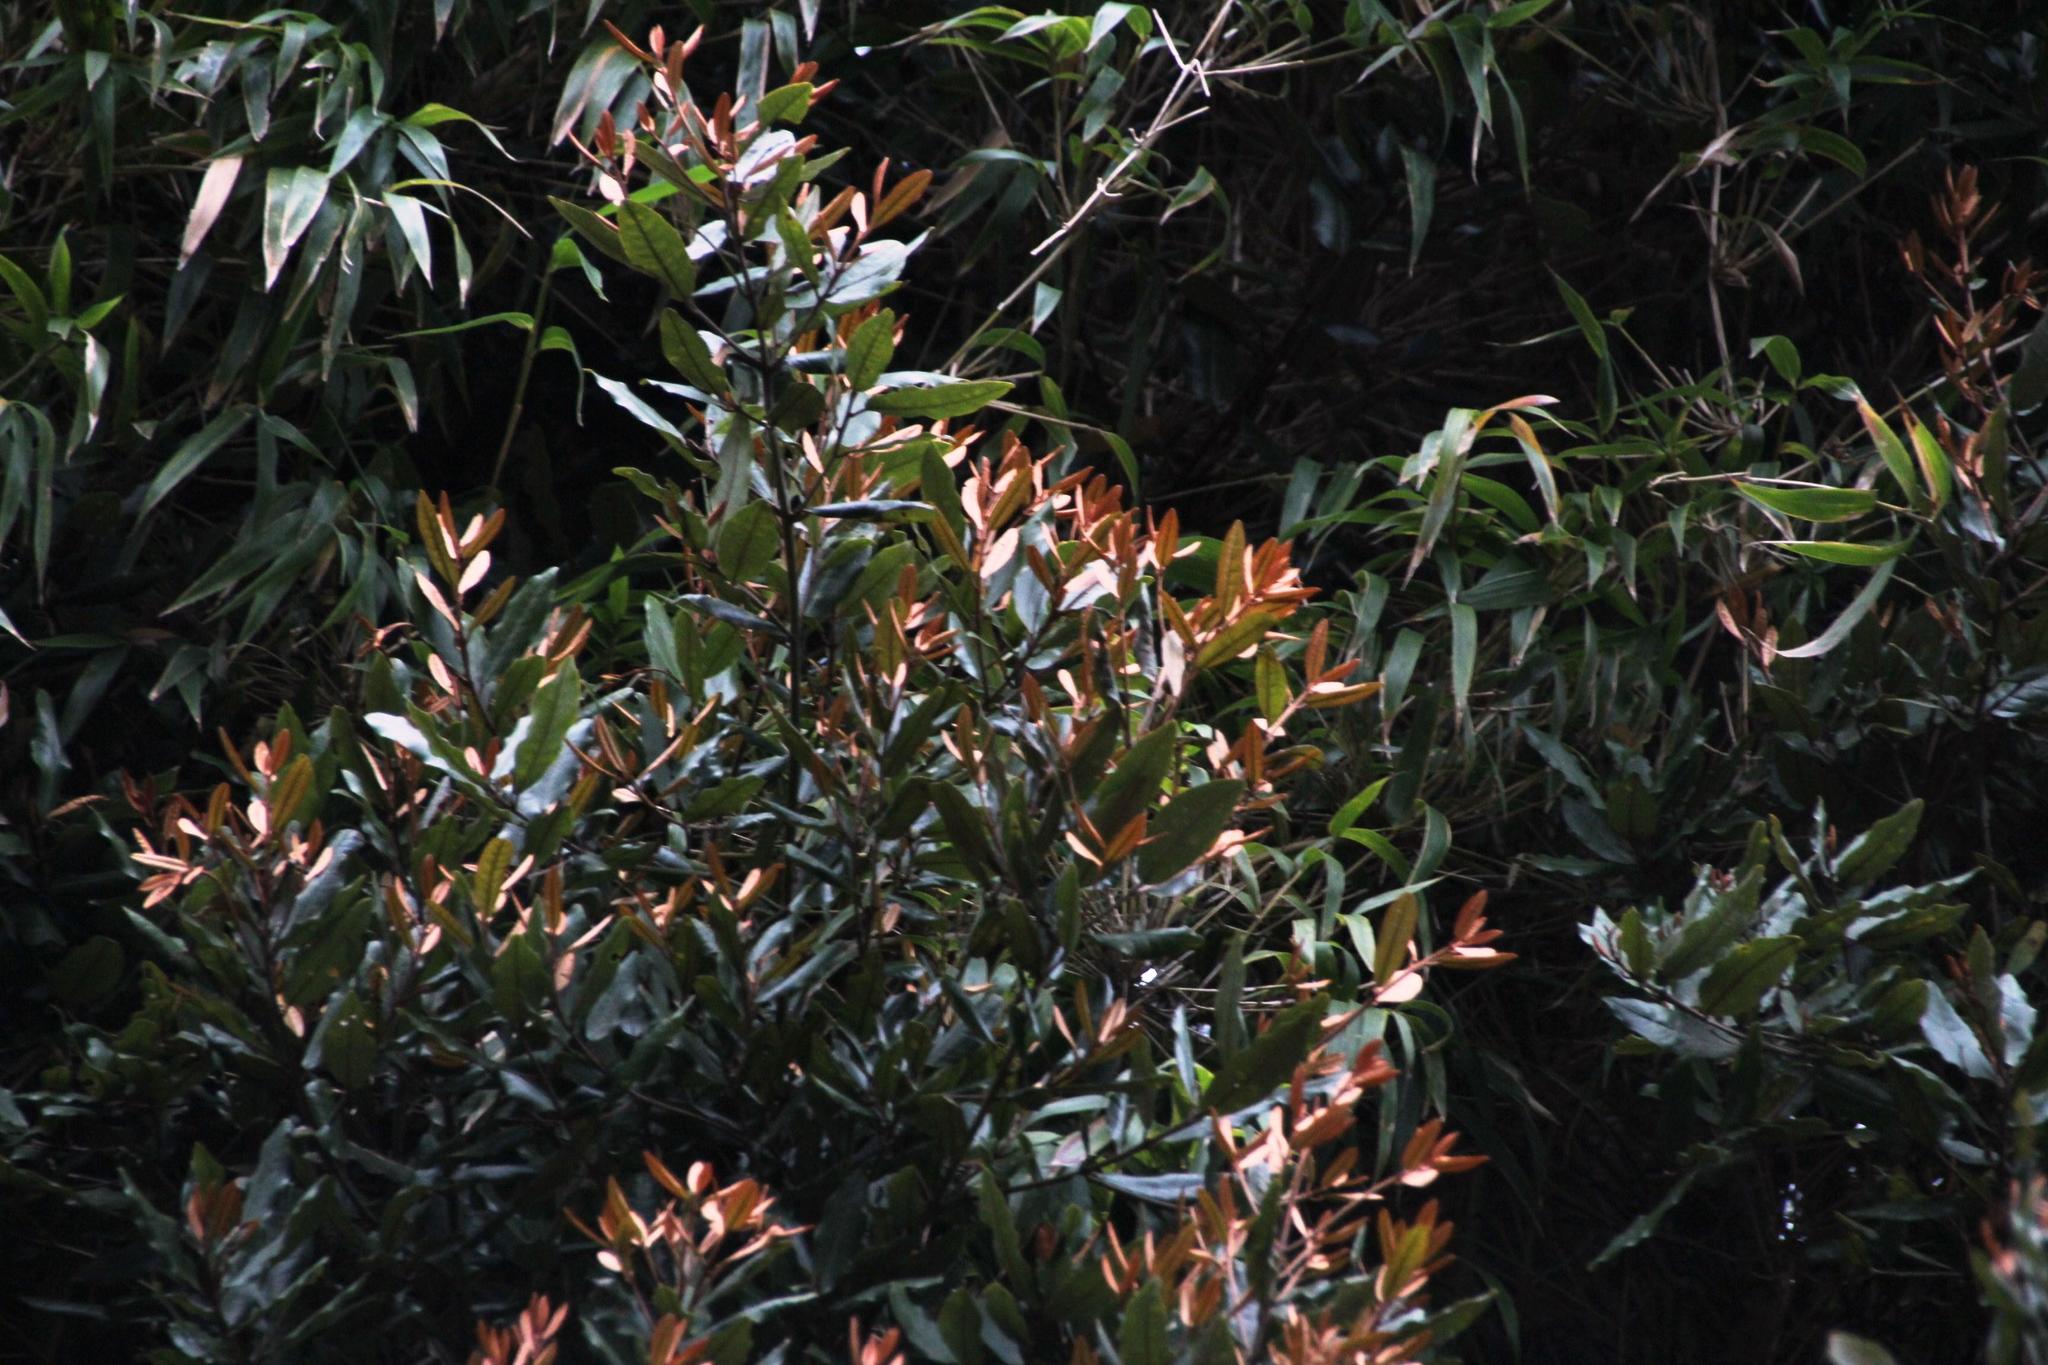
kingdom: Plantae
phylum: Tracheophyta
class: Magnoliopsida
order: Berberidopsidales
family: Aextoxicaceae
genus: Aextoxicon
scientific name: Aextoxicon punctatum
